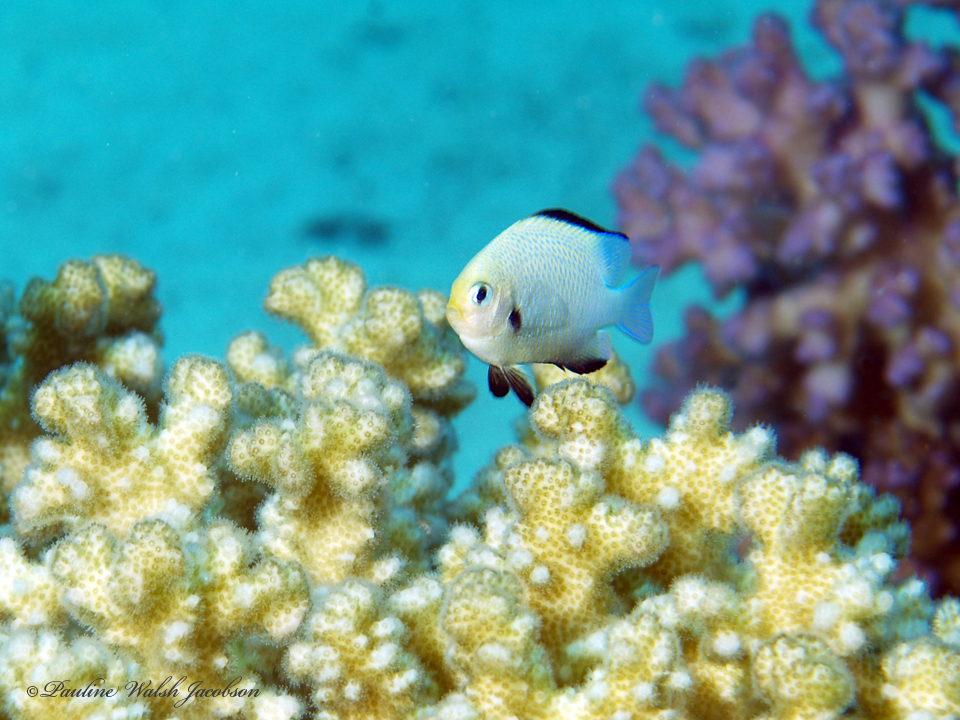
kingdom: Animalia
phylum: Chordata
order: Perciformes
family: Pomacentridae
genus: Dascyllus
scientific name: Dascyllus marginatus
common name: Red sea dascyllus
